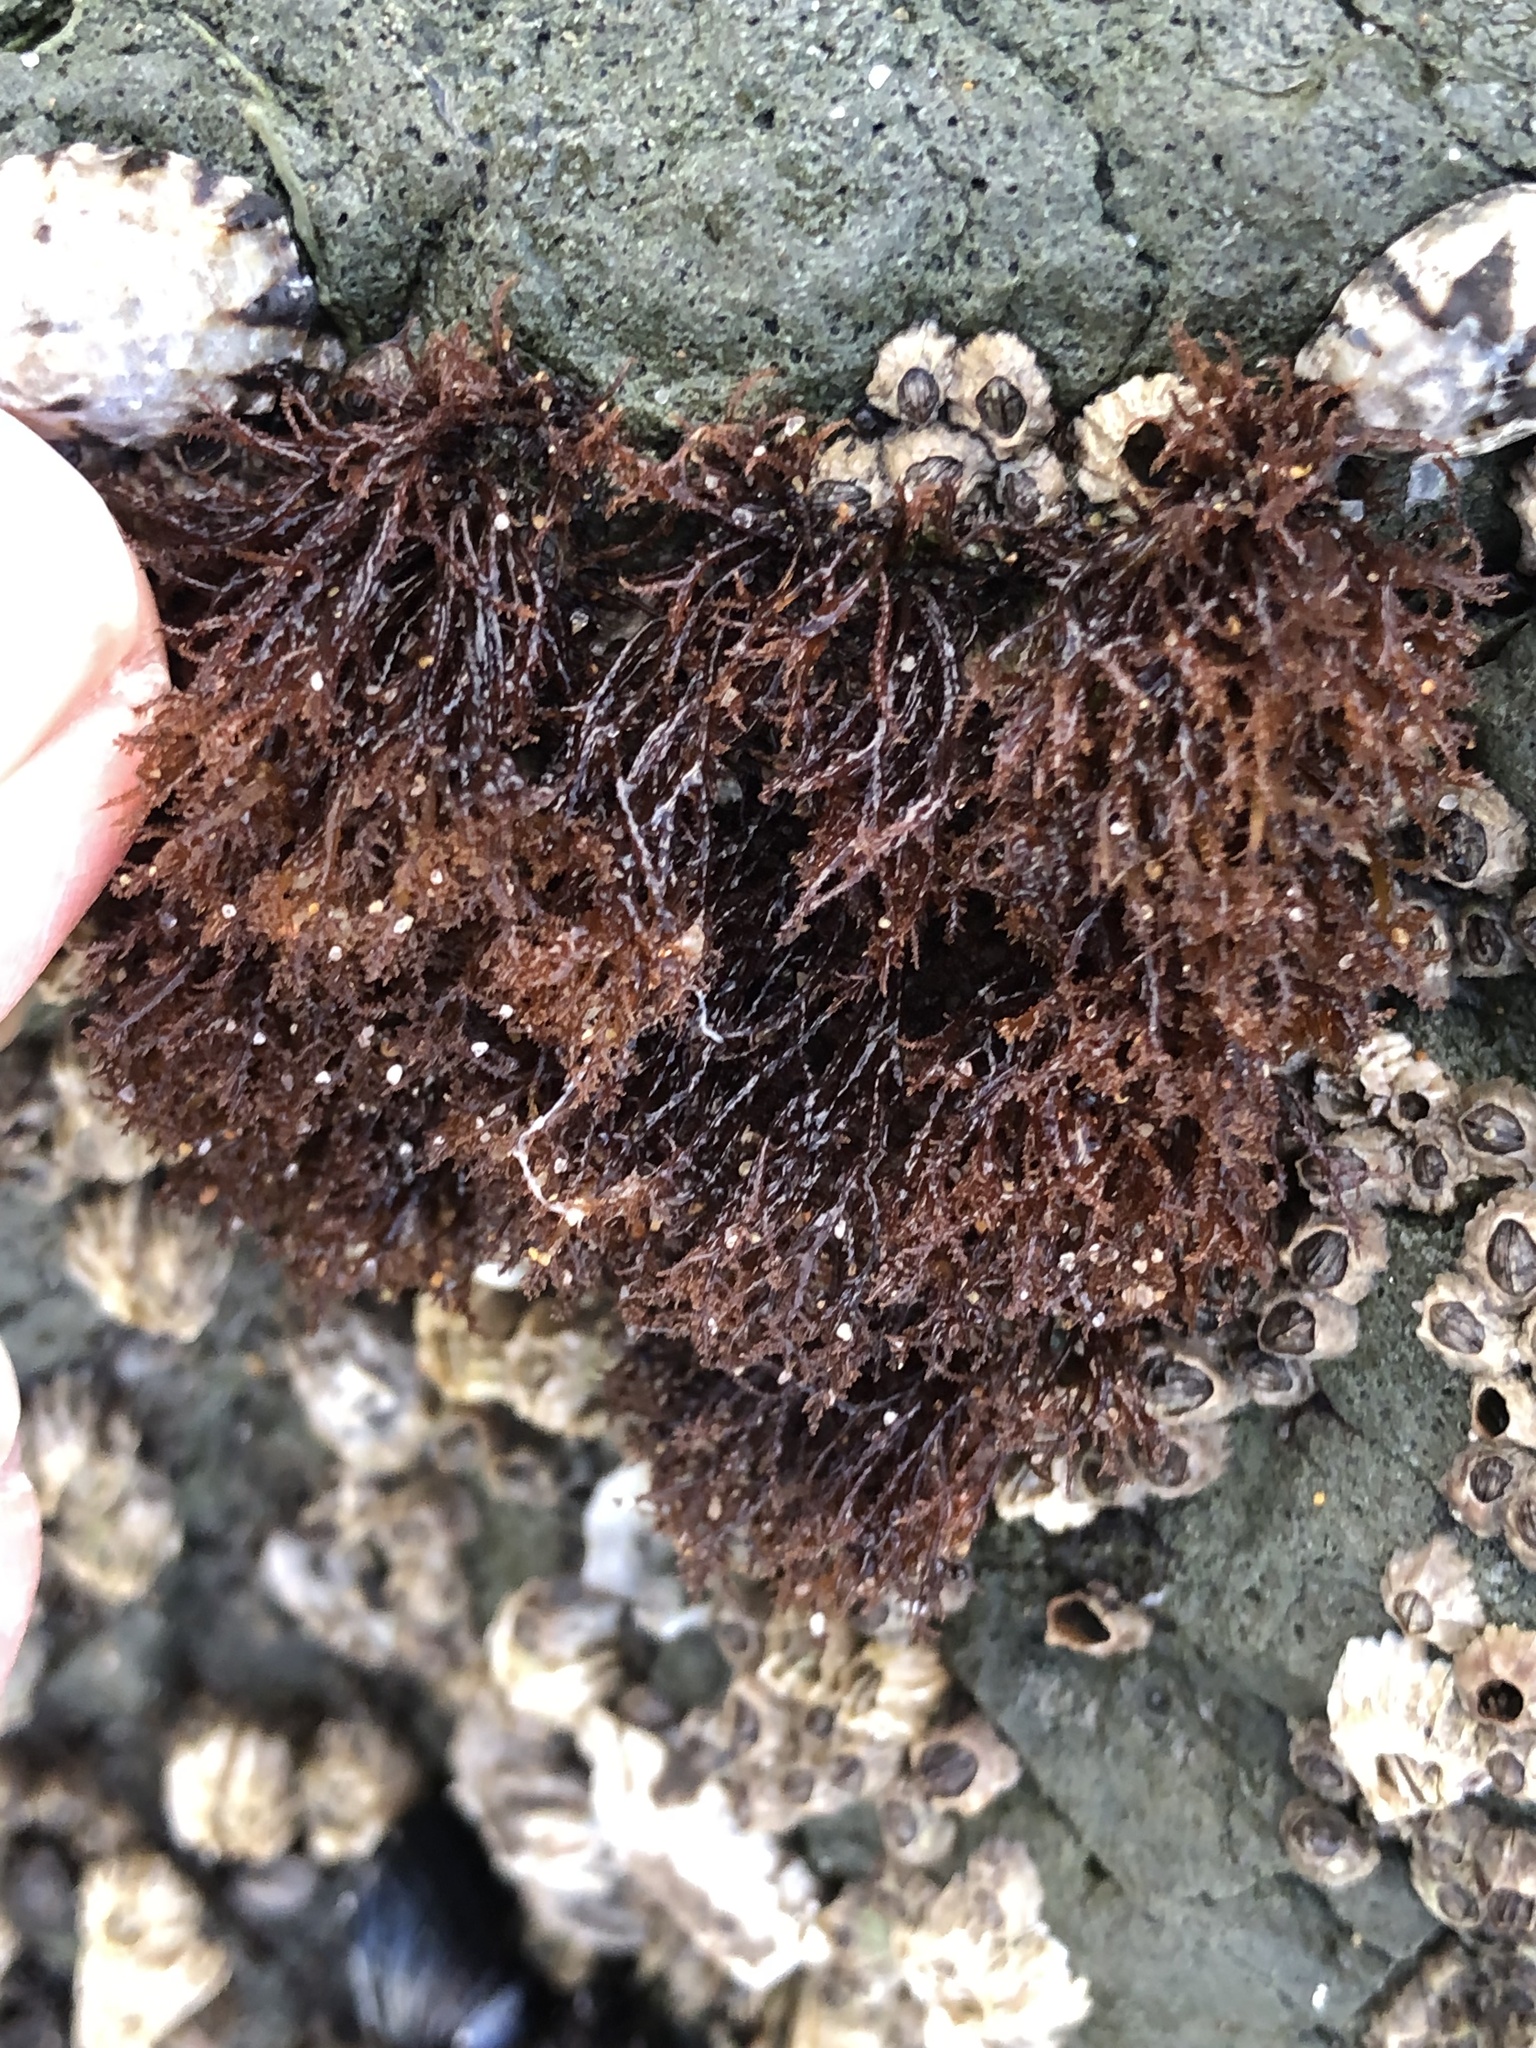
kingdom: Plantae
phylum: Rhodophyta
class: Florideophyceae
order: Gigartinales
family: Endocladiaceae
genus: Endocladia
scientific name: Endocladia muricata
